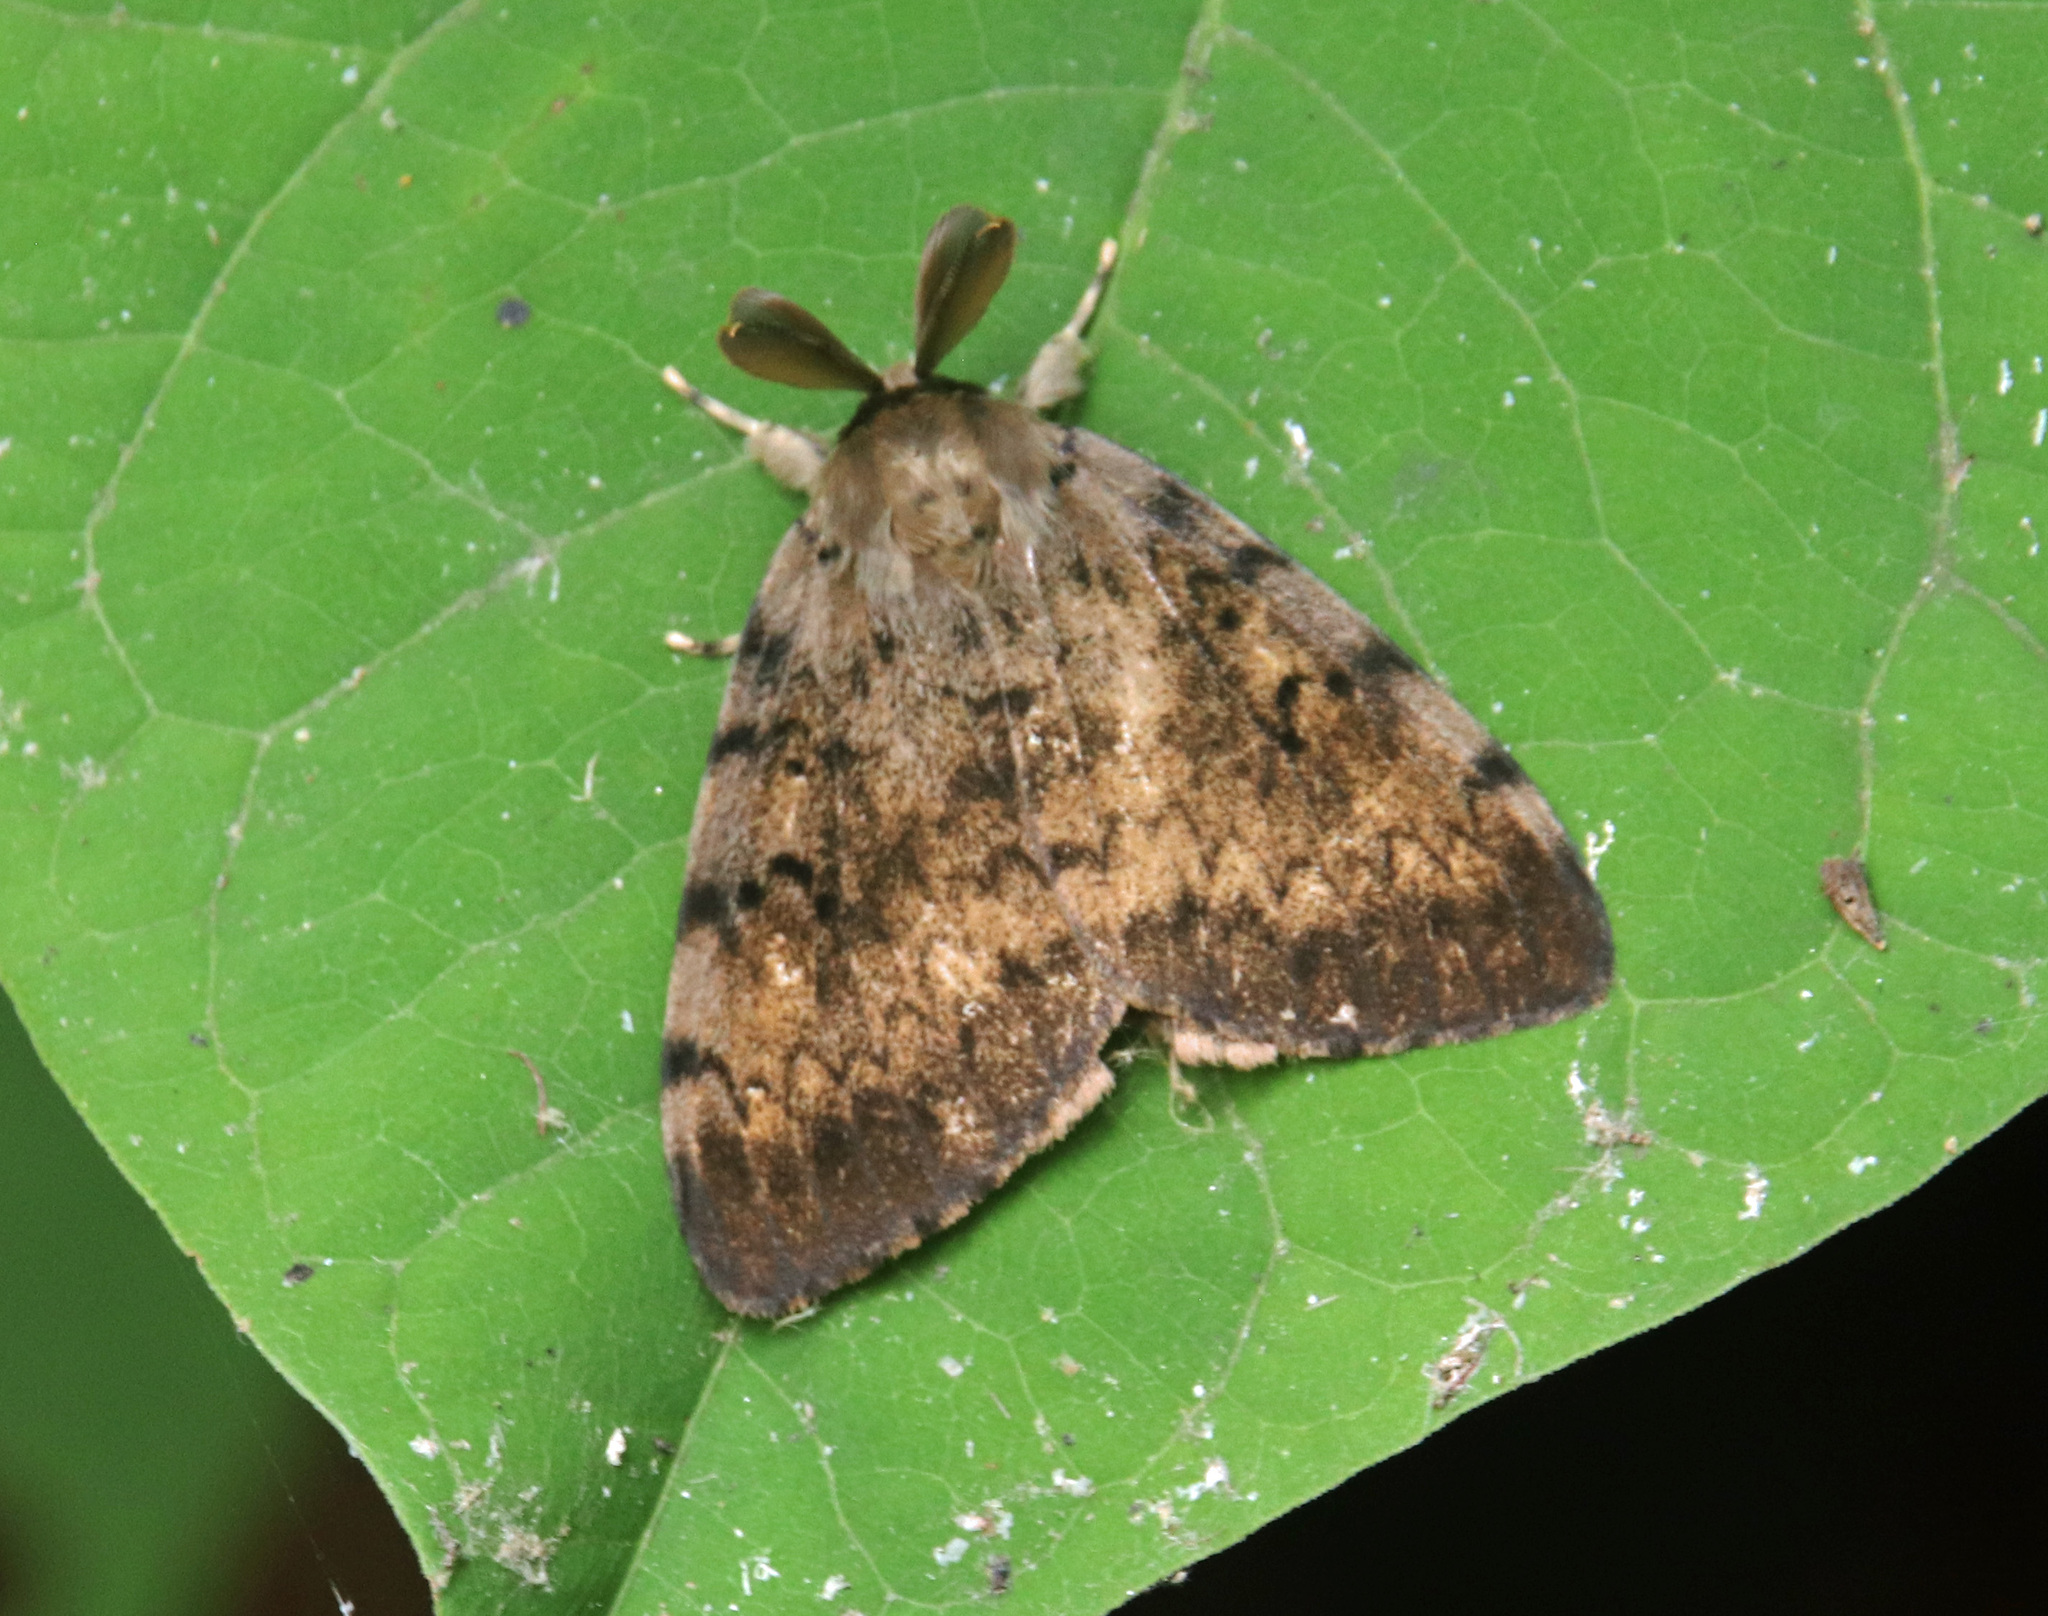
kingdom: Animalia
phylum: Arthropoda
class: Insecta
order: Lepidoptera
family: Erebidae
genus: Lymantria
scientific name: Lymantria dispar
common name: Gypsy moth
